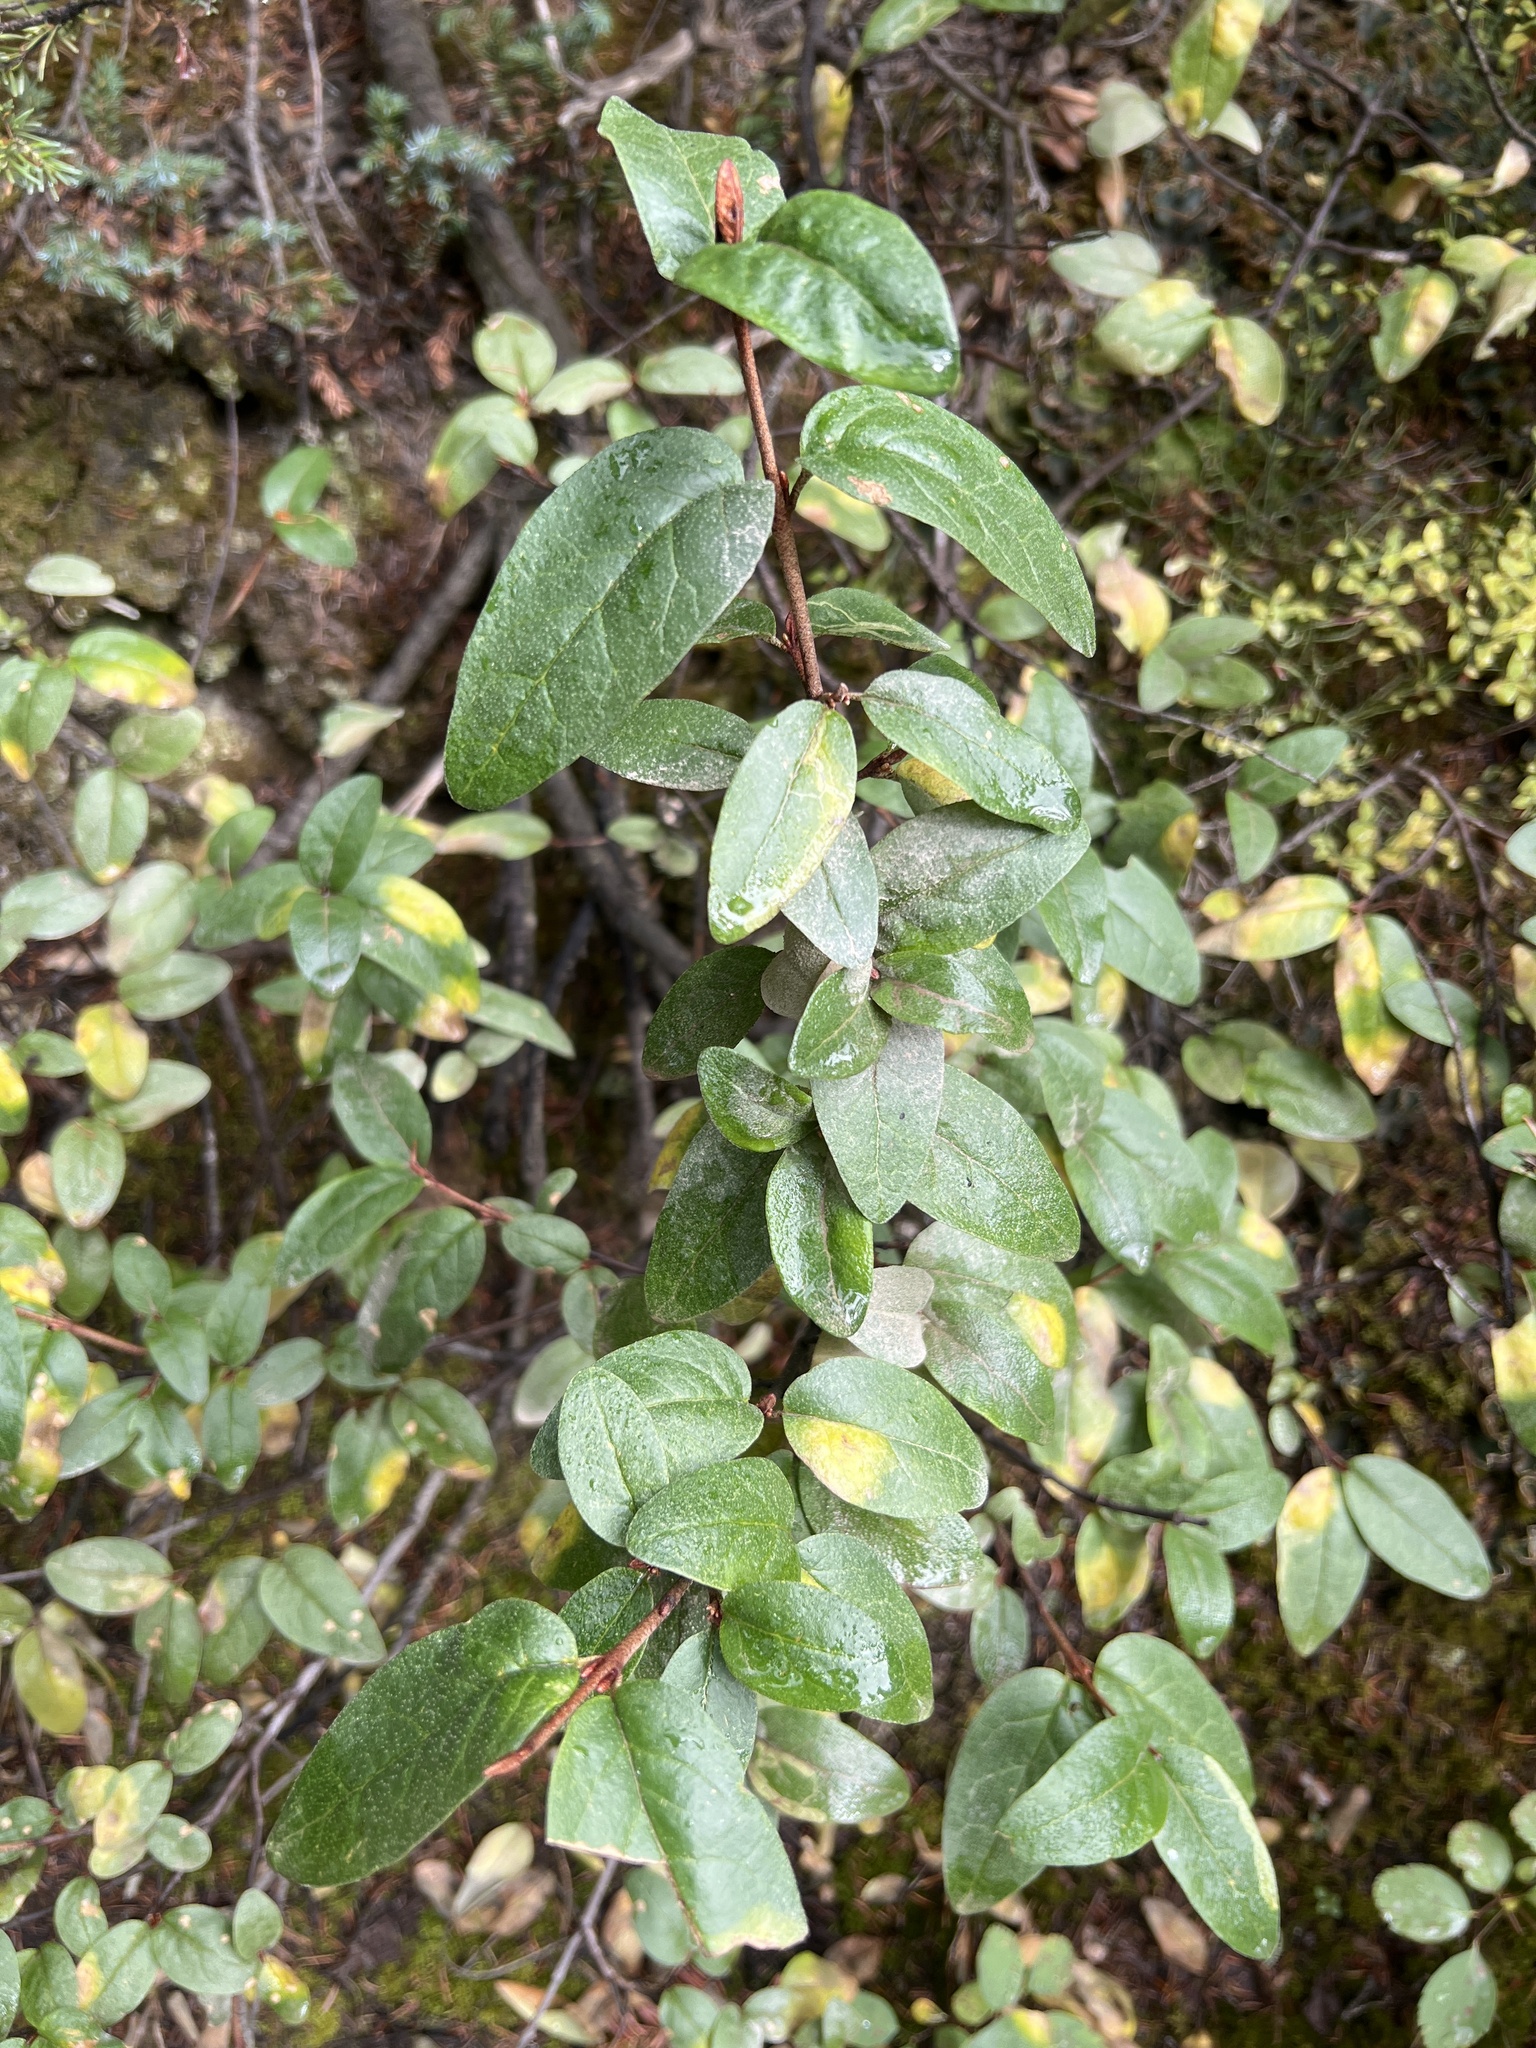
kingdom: Plantae
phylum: Tracheophyta
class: Magnoliopsida
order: Rosales
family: Elaeagnaceae
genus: Shepherdia
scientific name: Shepherdia canadensis
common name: Soapberry
